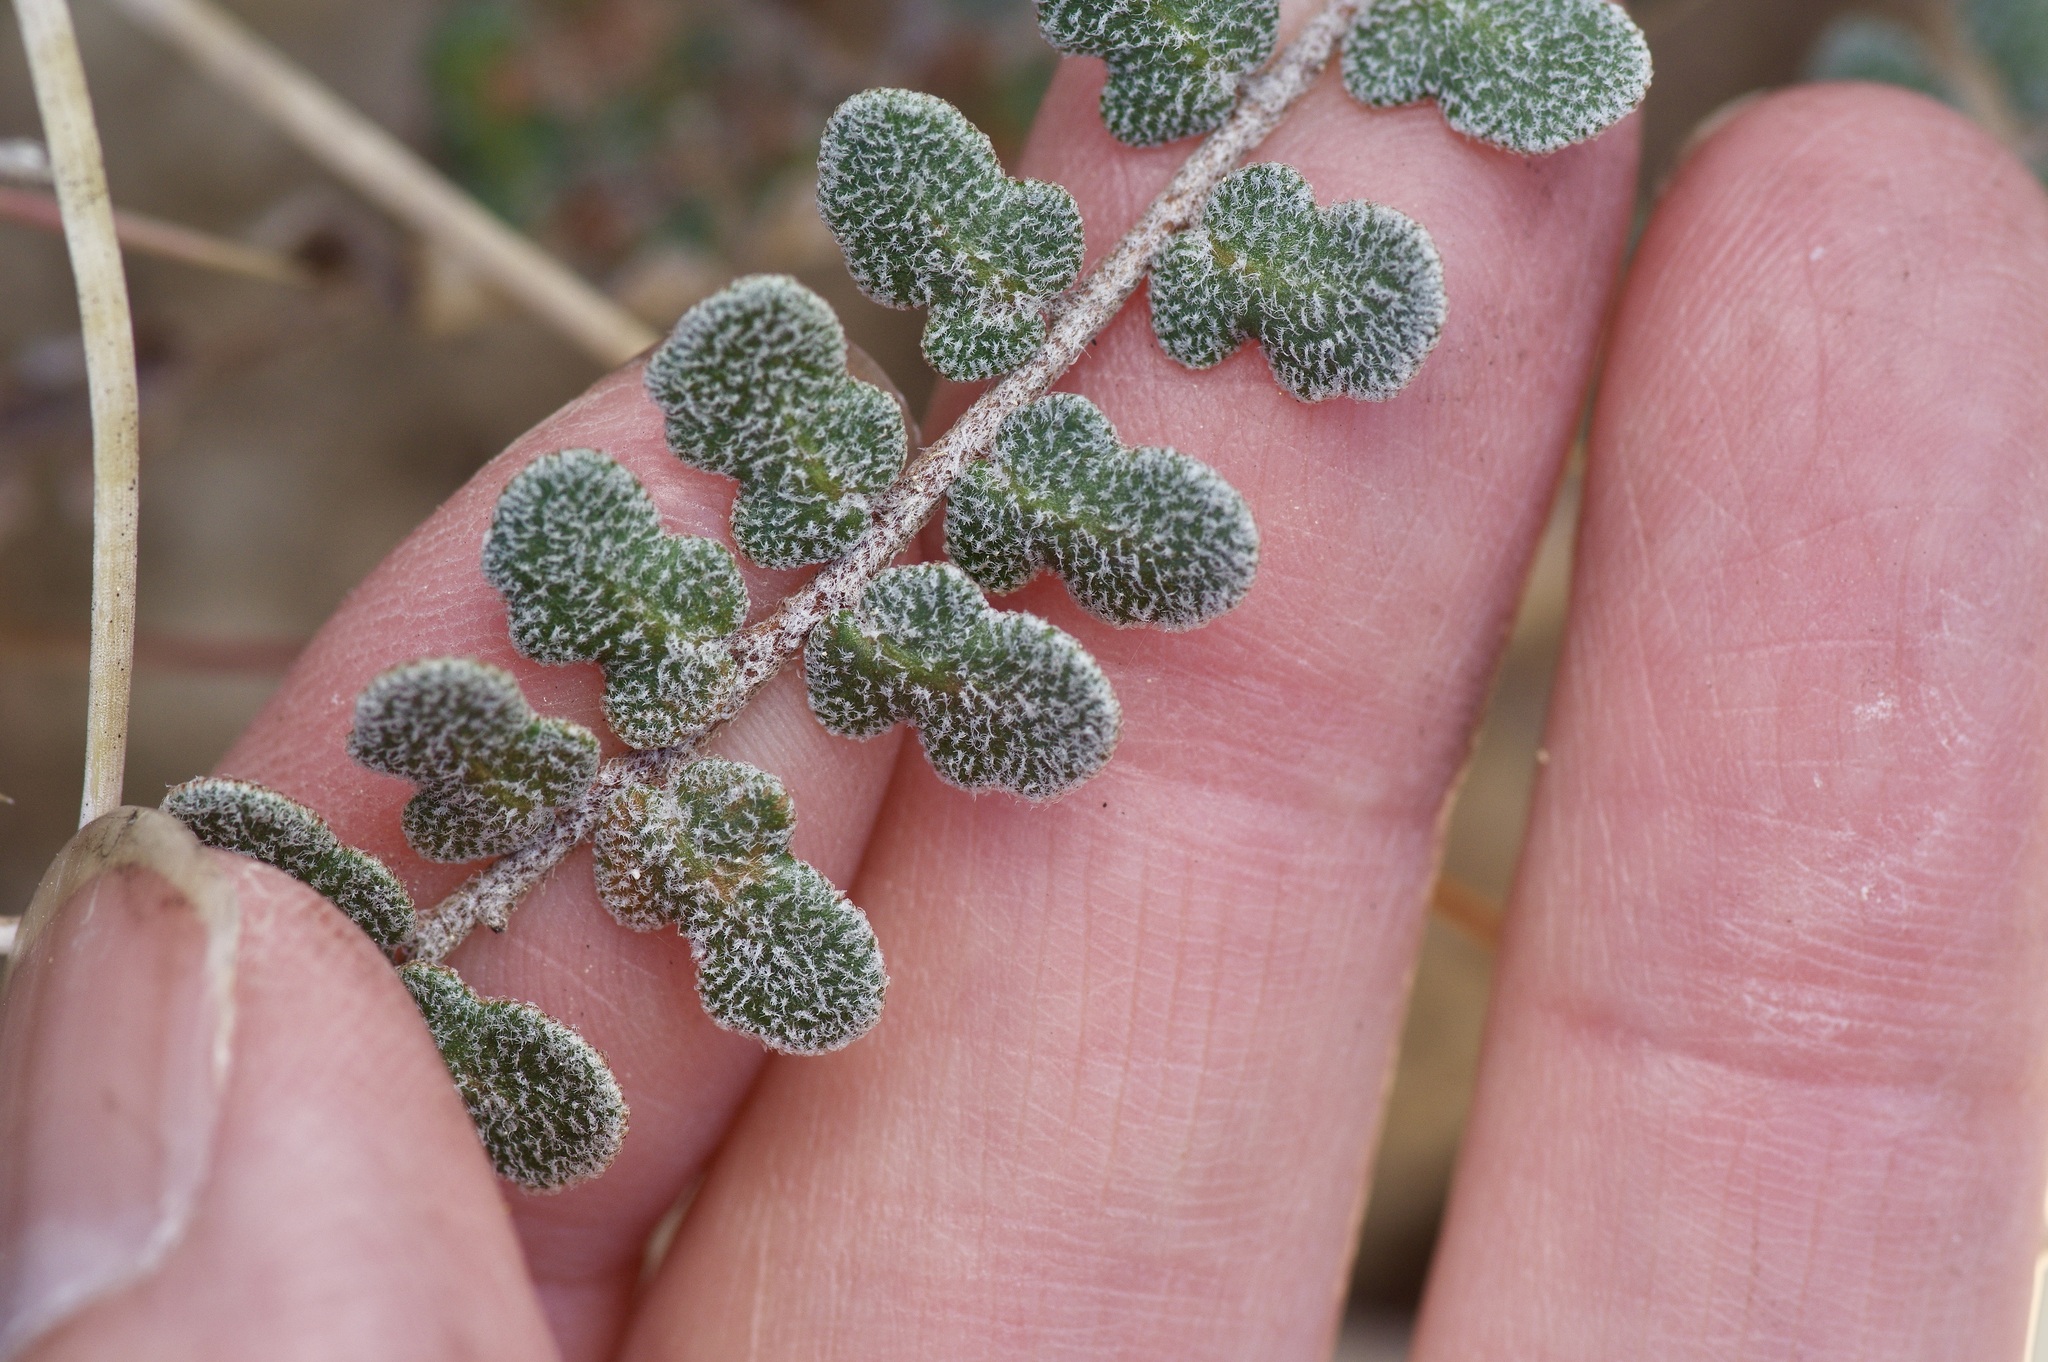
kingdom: Plantae
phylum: Tracheophyta
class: Polypodiopsida
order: Polypodiales
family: Pteridaceae
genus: Astrolepis
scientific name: Astrolepis cochisensis
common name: Scaly cloak fern
